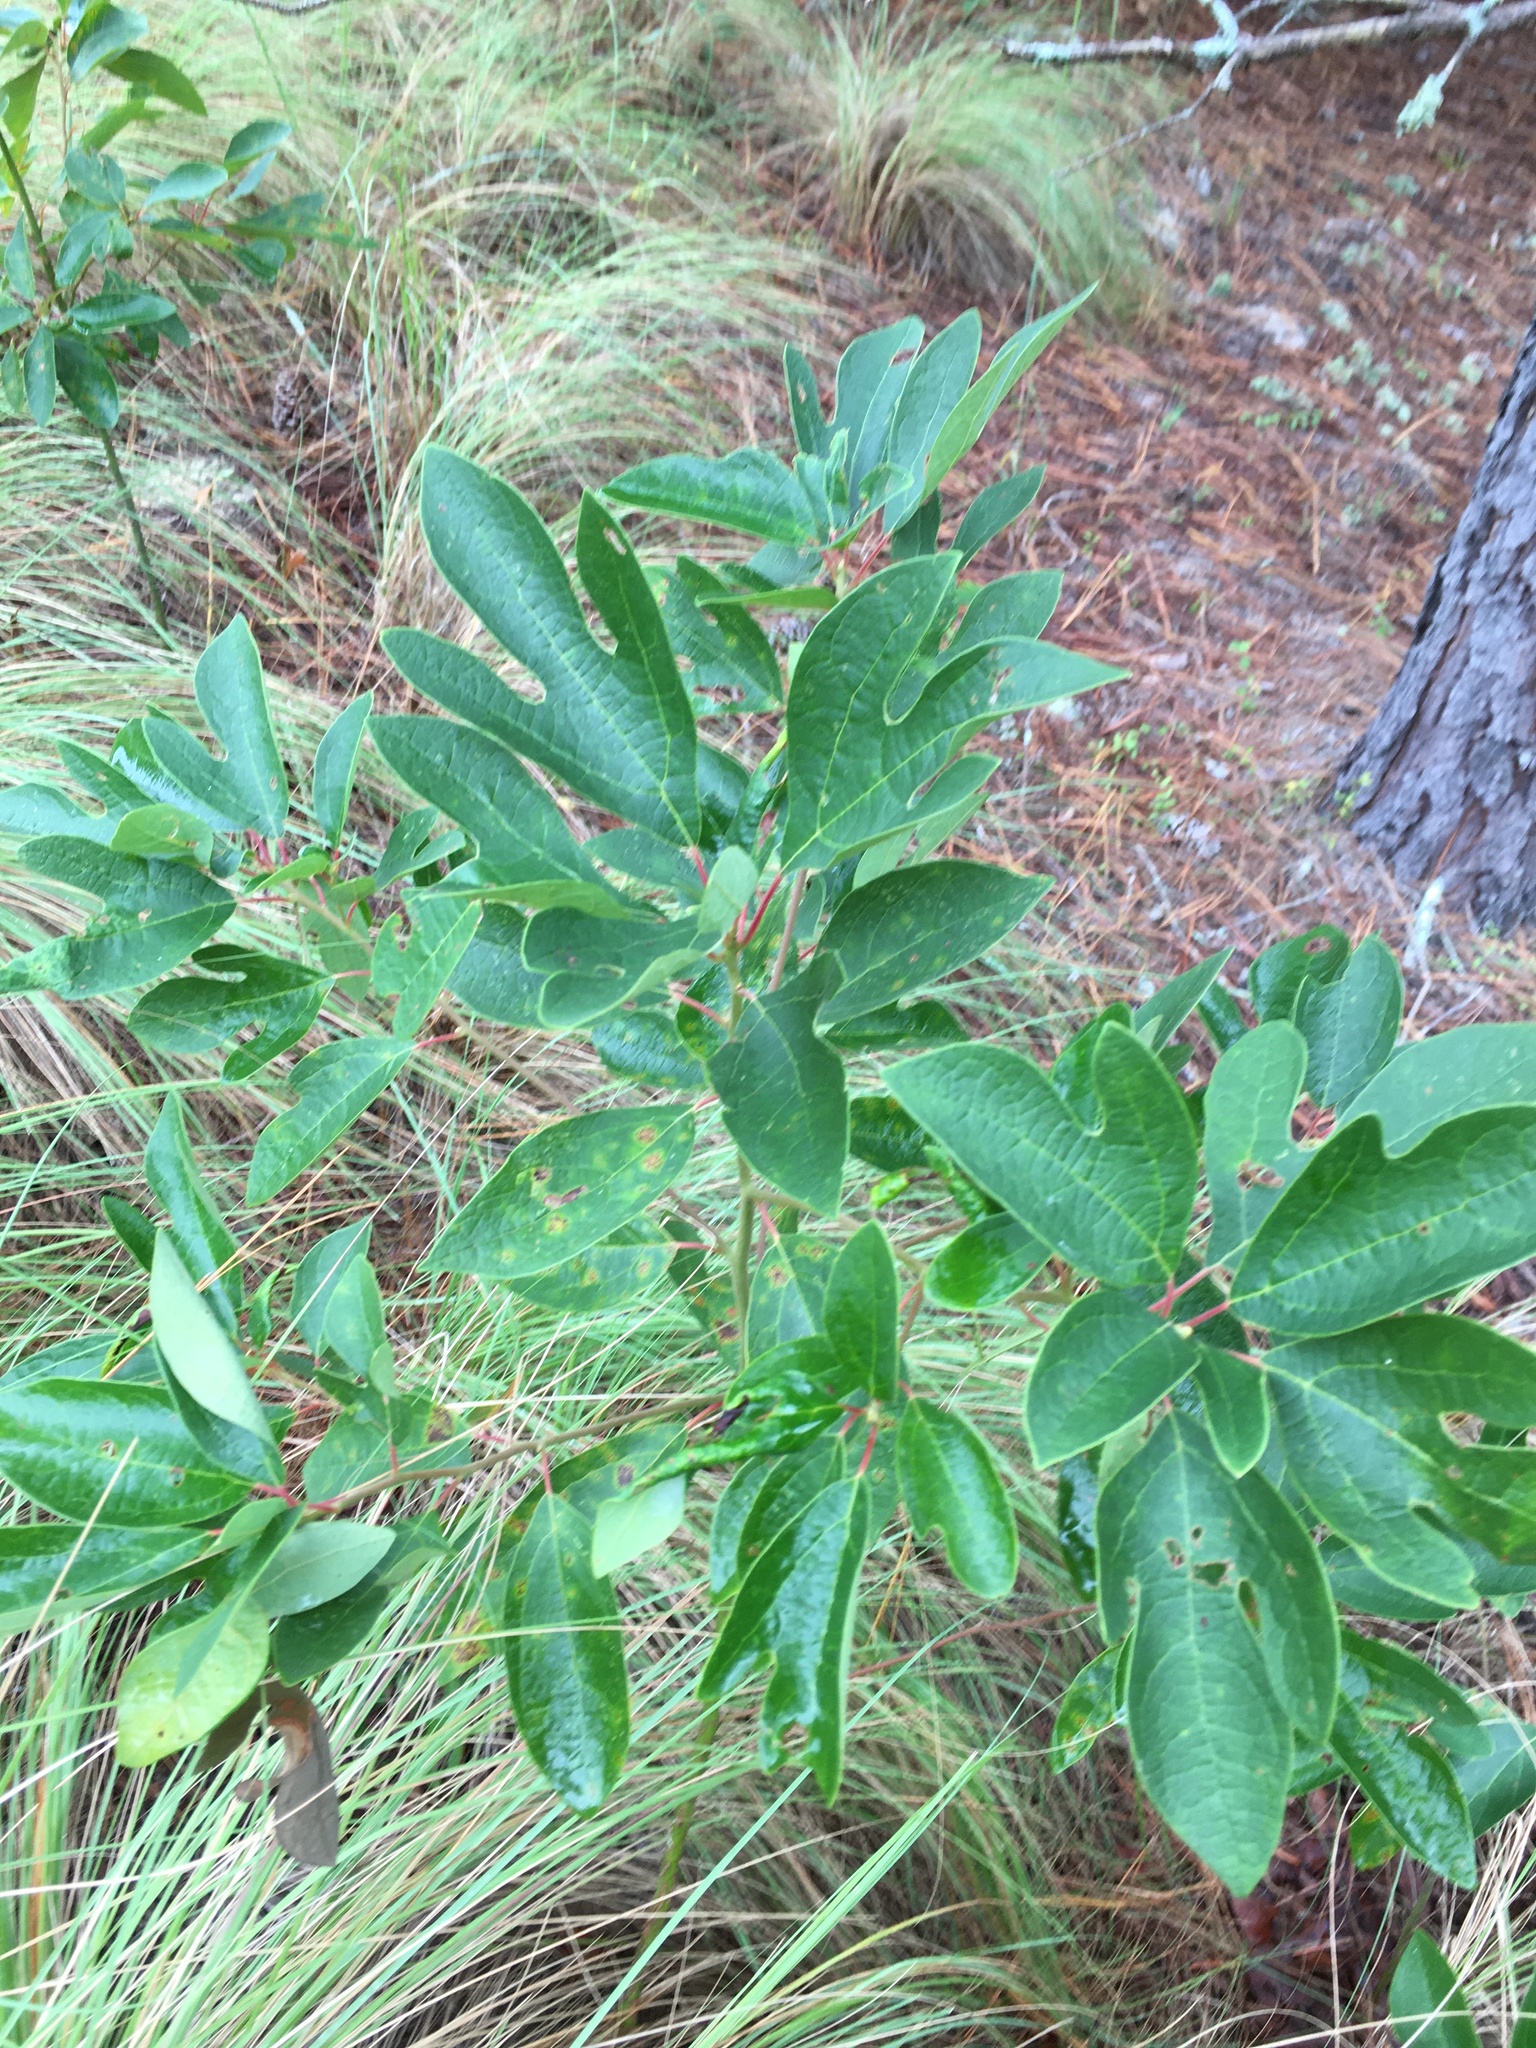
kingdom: Plantae
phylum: Tracheophyta
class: Magnoliopsida
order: Laurales
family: Lauraceae
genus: Sassafras
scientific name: Sassafras albidum
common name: Sassafras
